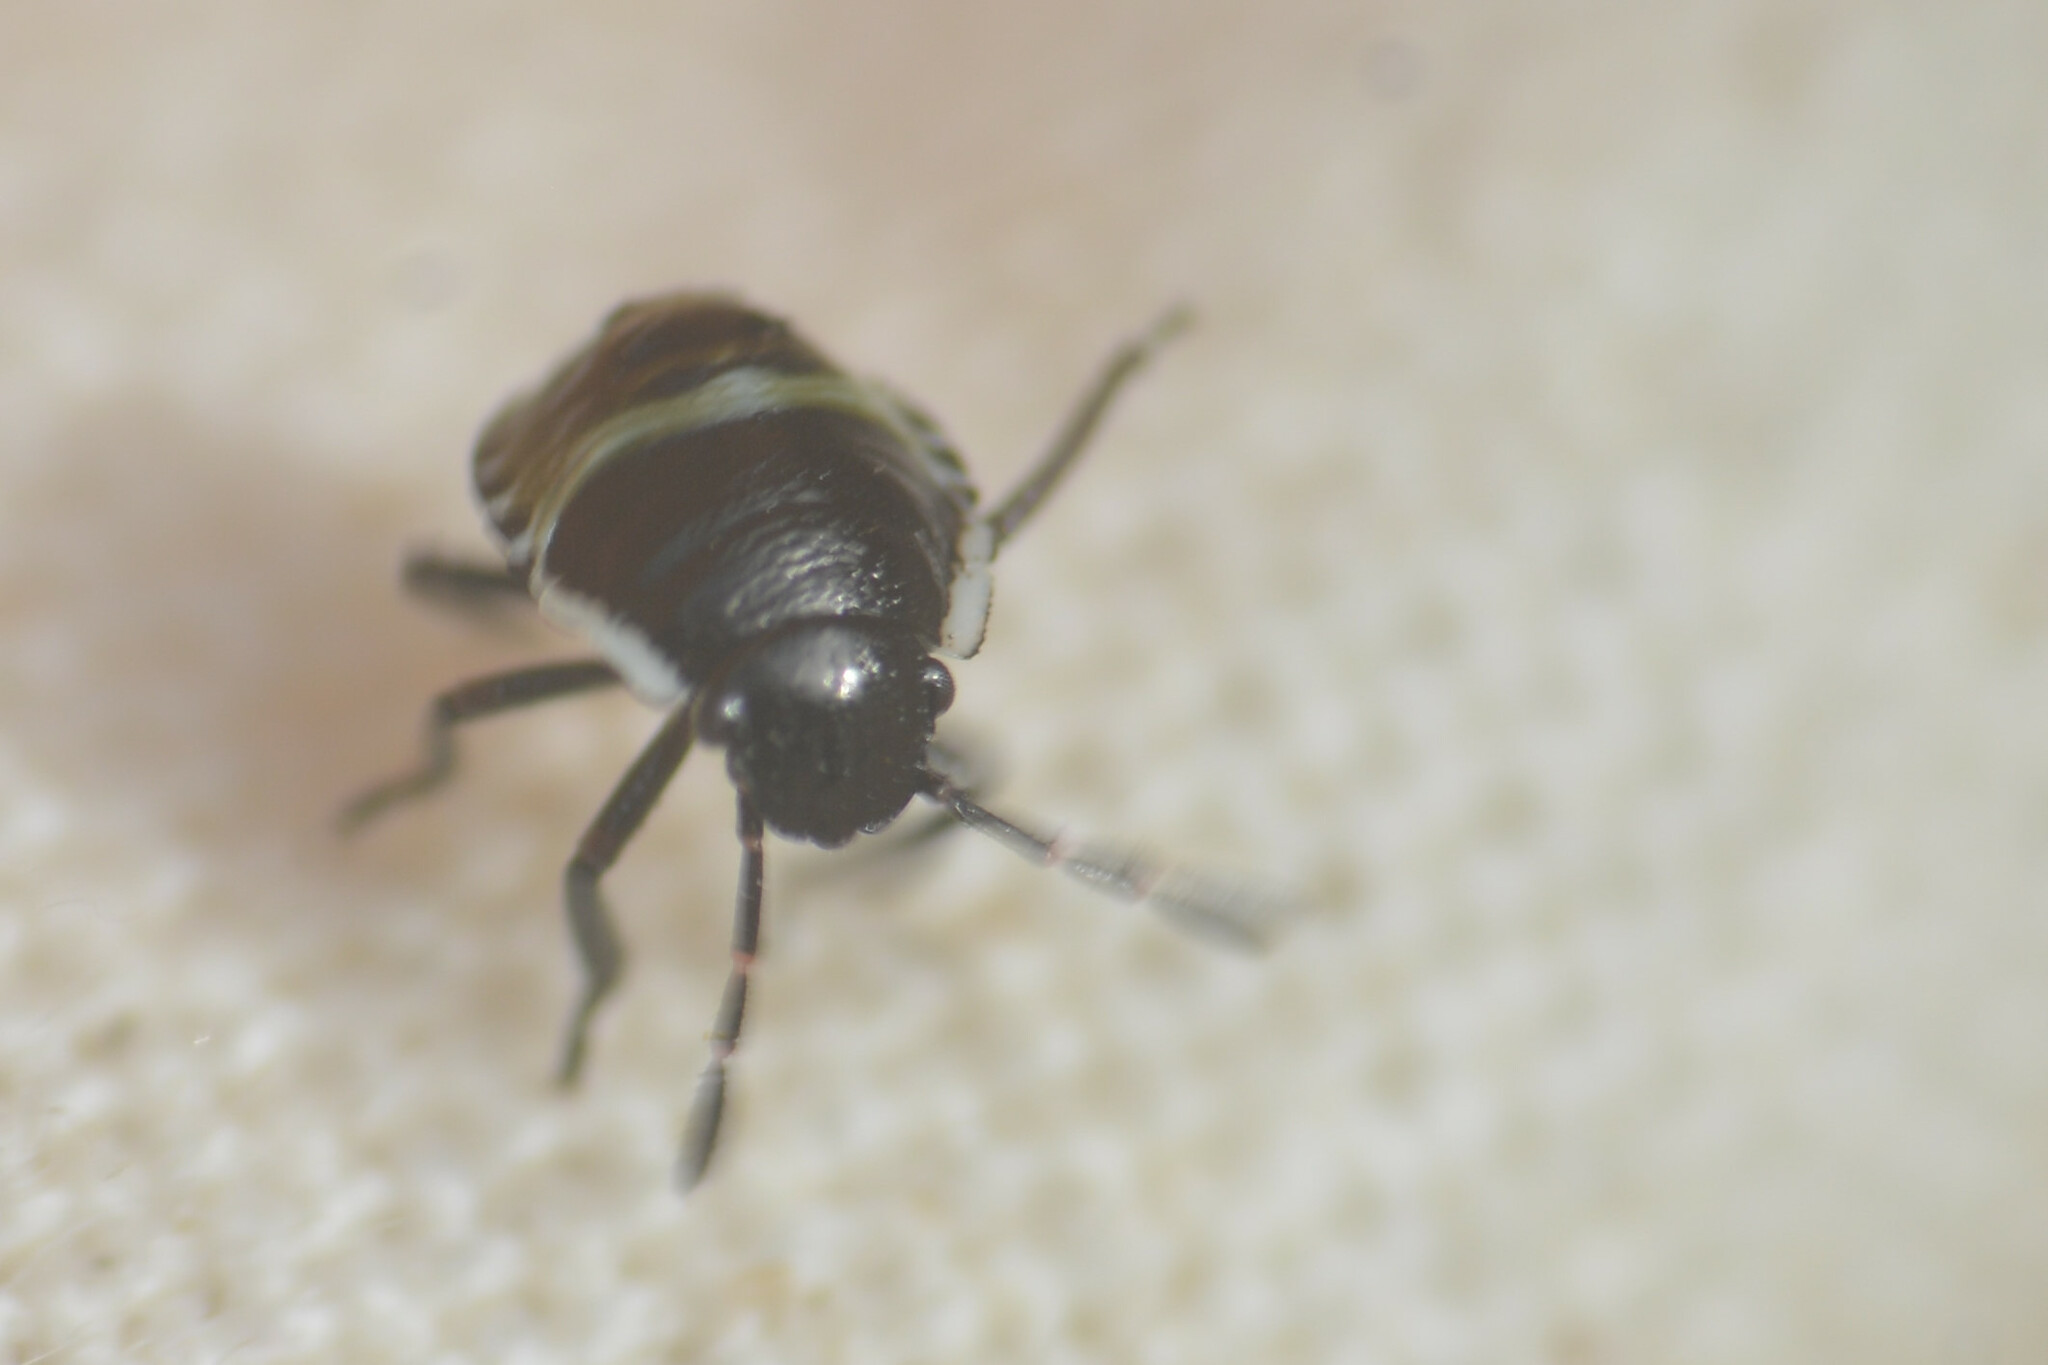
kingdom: Animalia
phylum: Arthropoda
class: Insecta
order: Hemiptera
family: Pentatomidae
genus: Palomena
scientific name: Palomena prasina
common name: Green shieldbug
